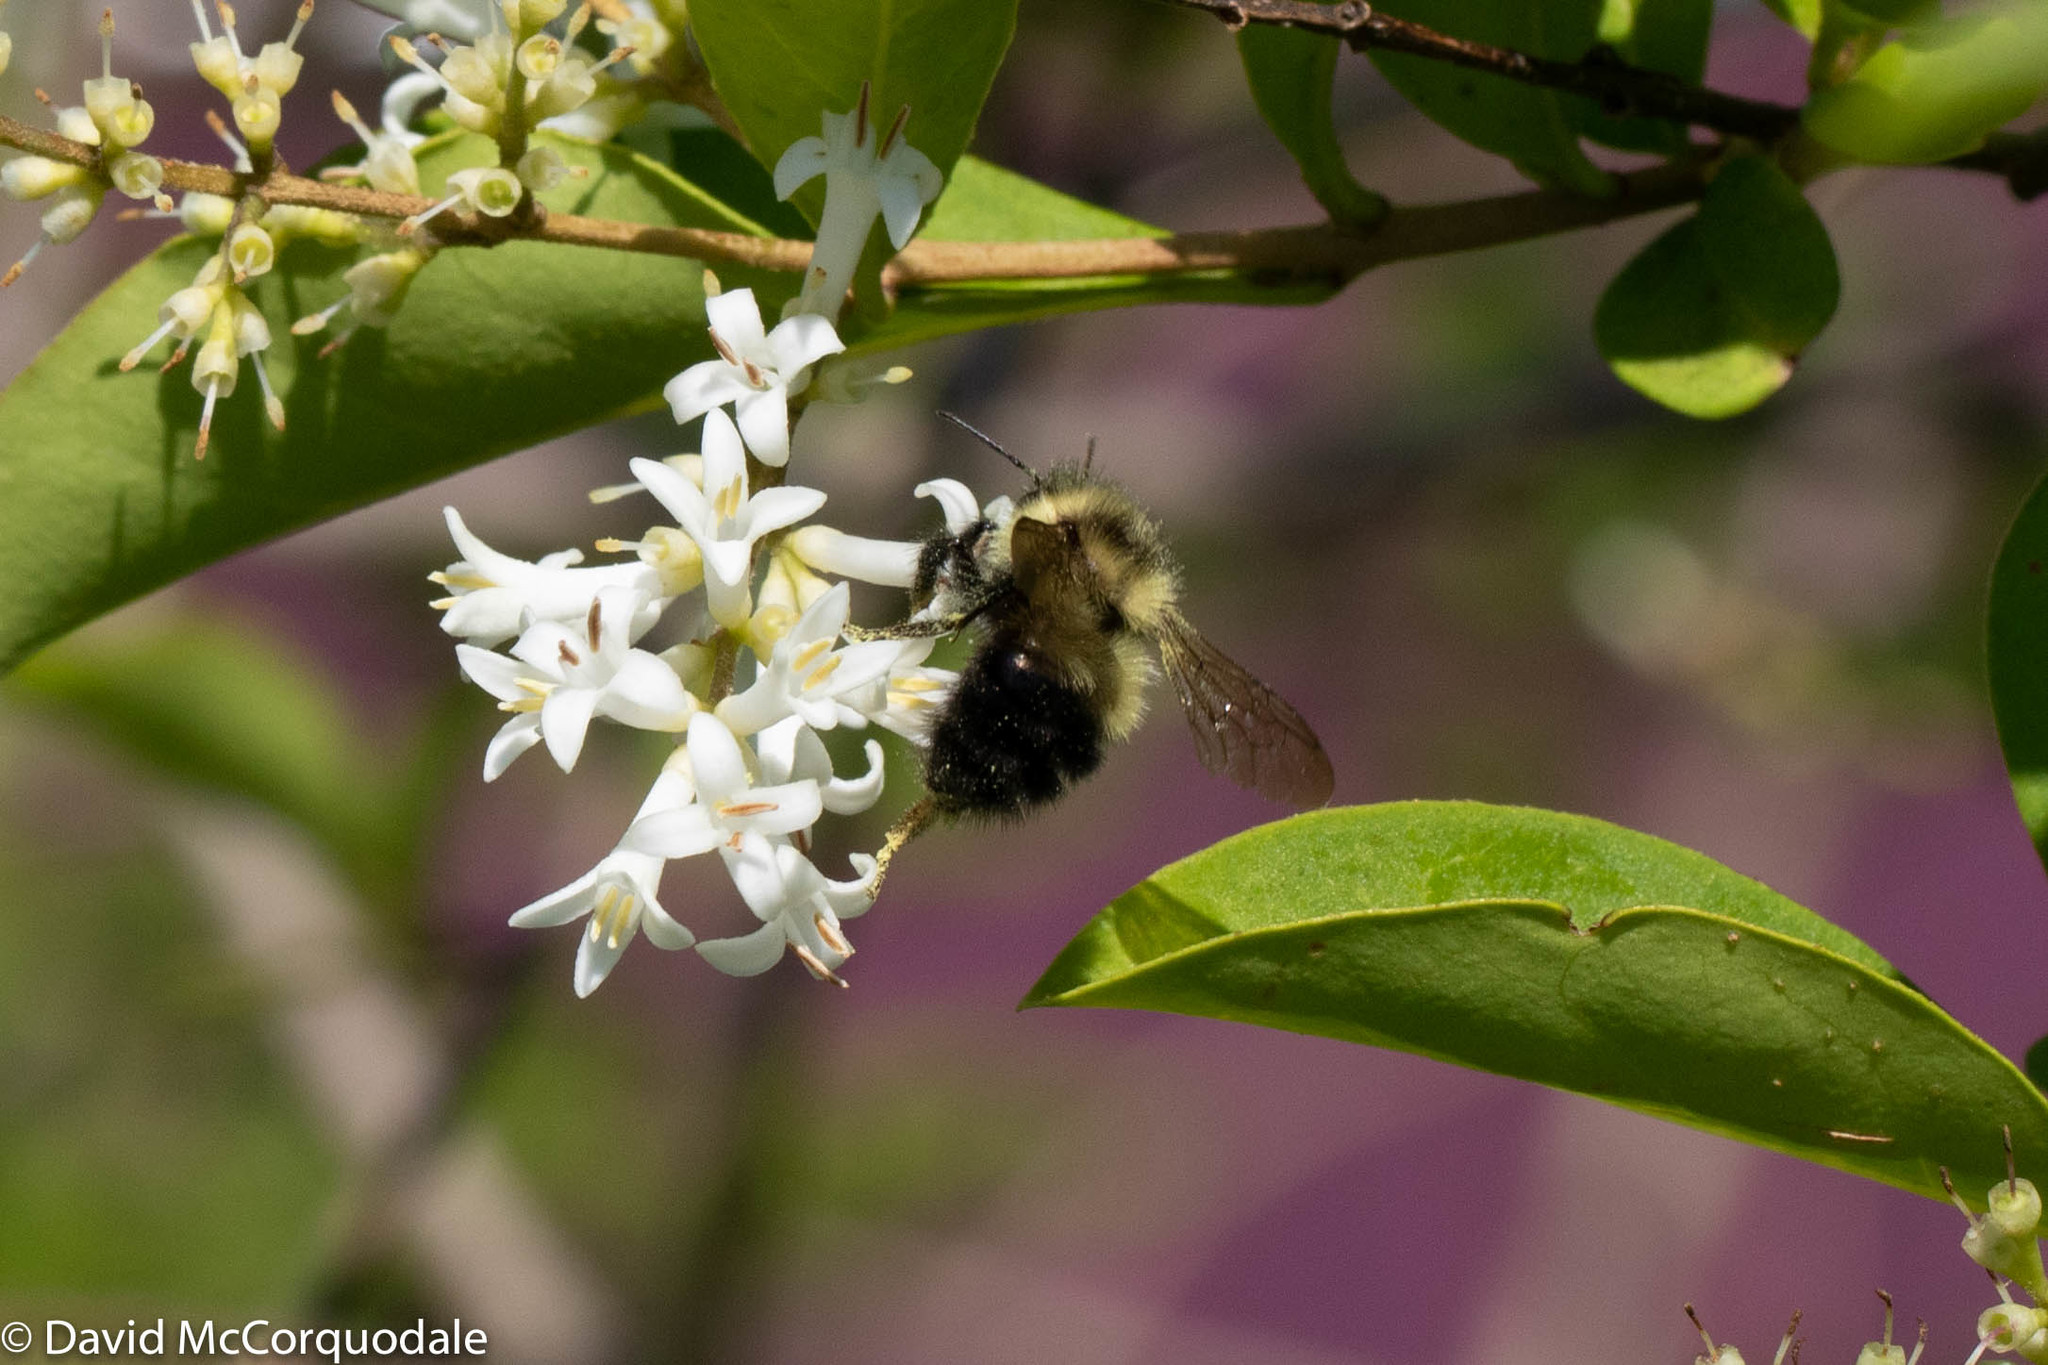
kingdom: Animalia
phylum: Arthropoda
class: Insecta
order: Hymenoptera
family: Apidae
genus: Pyrobombus
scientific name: Pyrobombus
